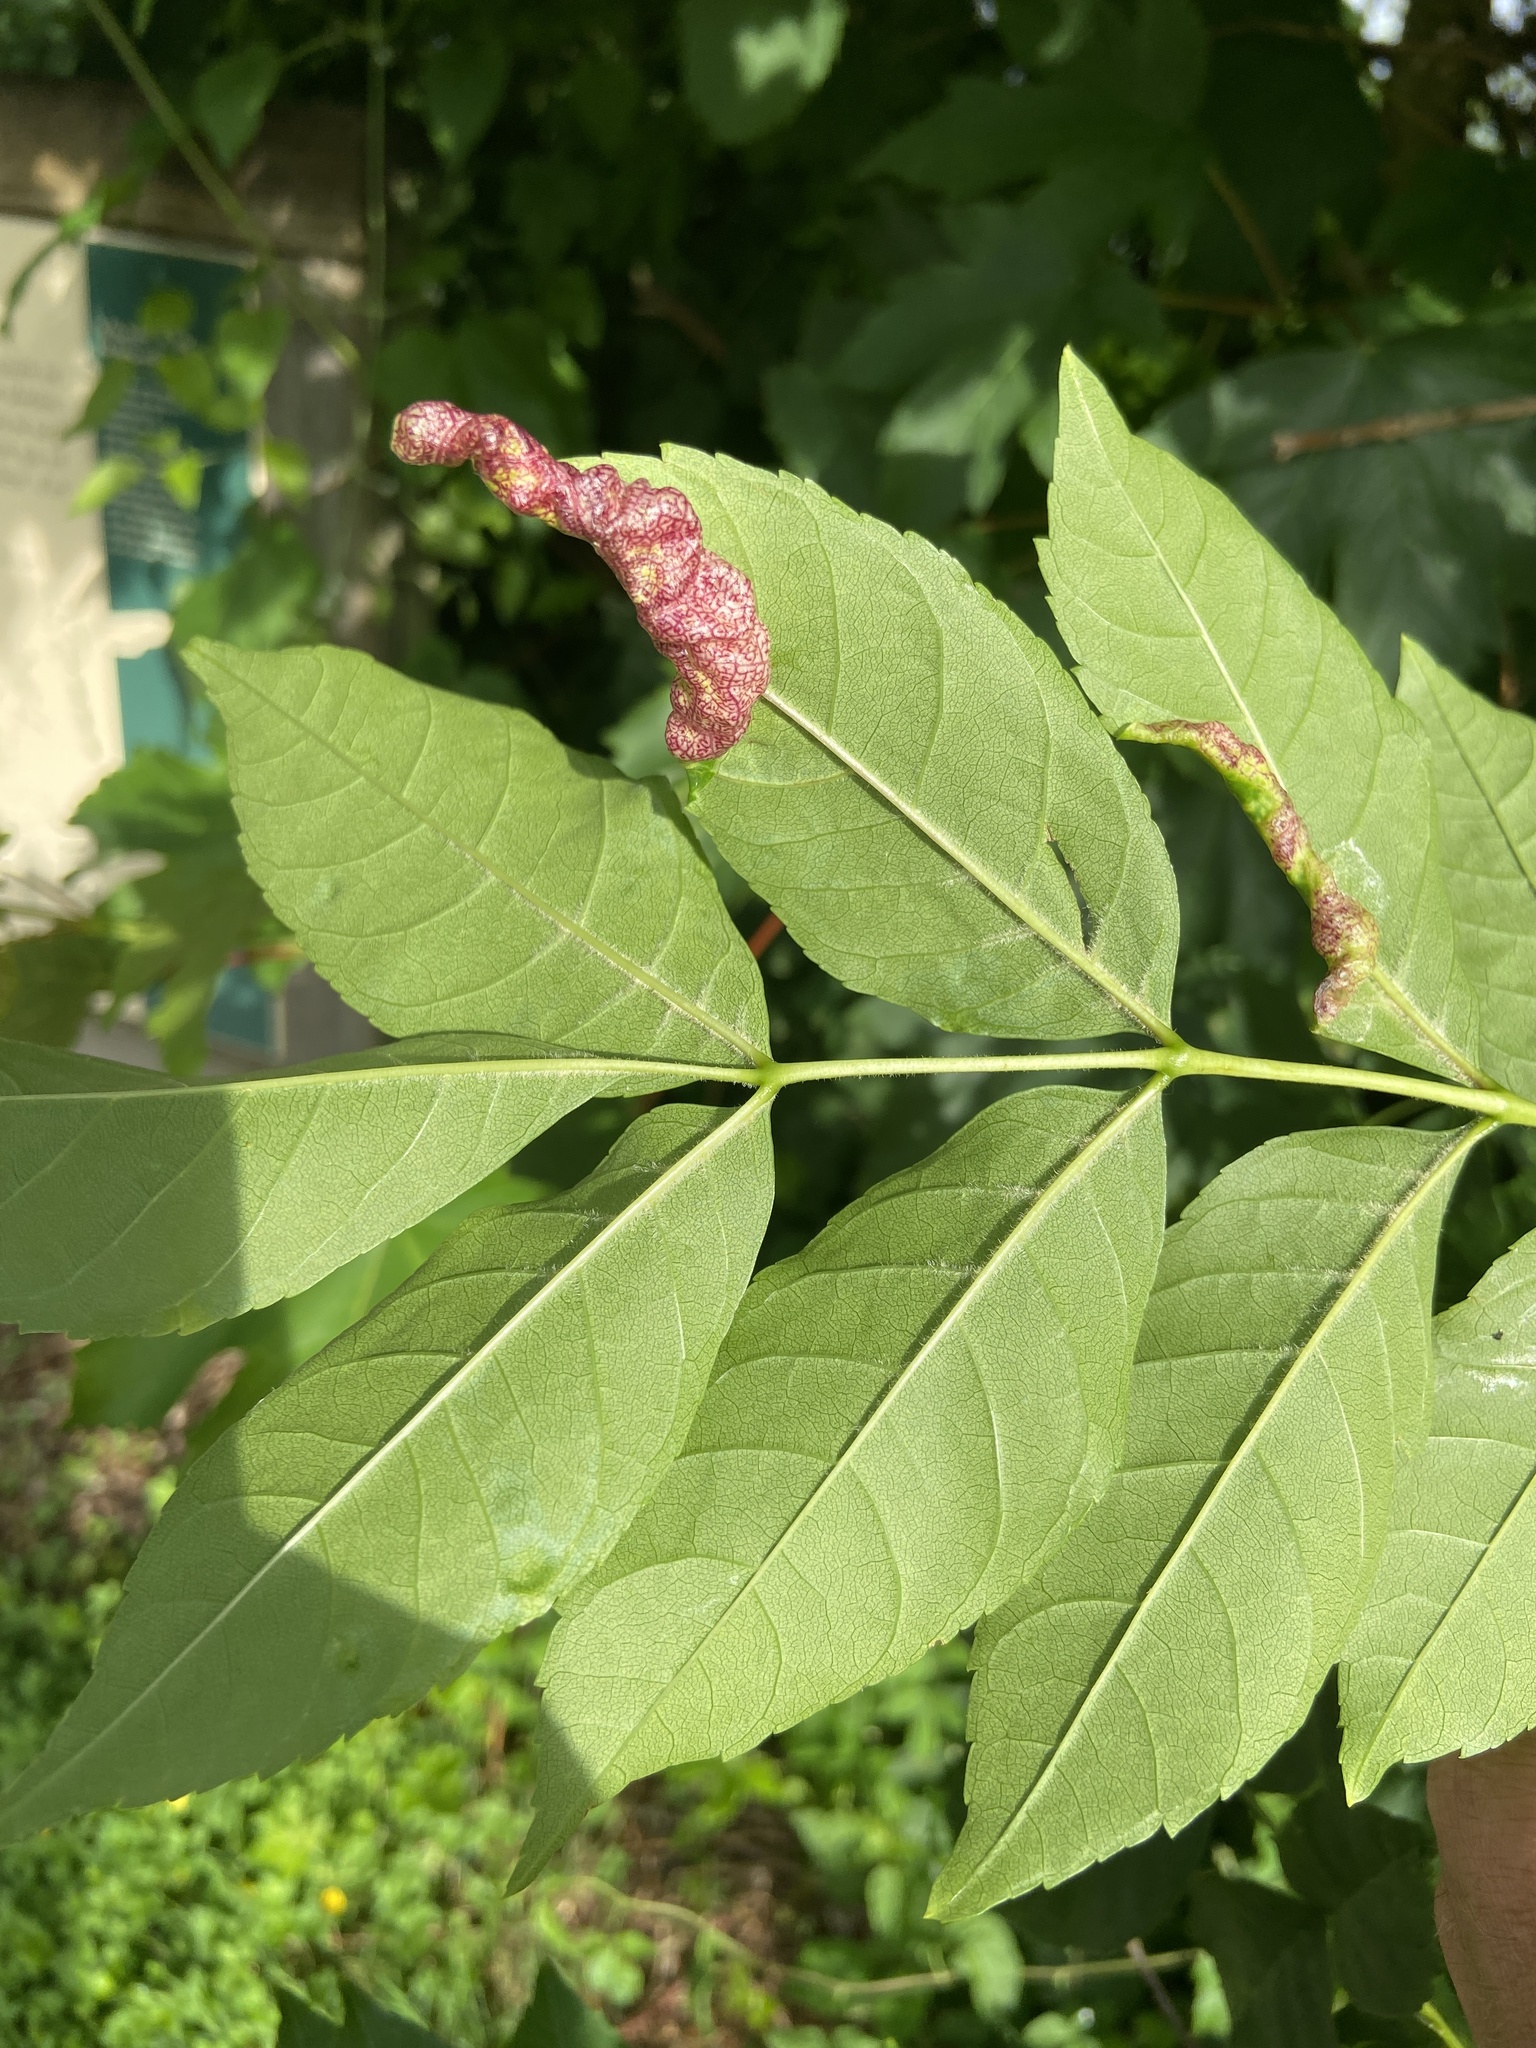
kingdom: Animalia
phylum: Arthropoda
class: Insecta
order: Hemiptera
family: Liviidae
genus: Psyllopsis
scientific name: Psyllopsis fraxini
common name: Jumping plant louse
